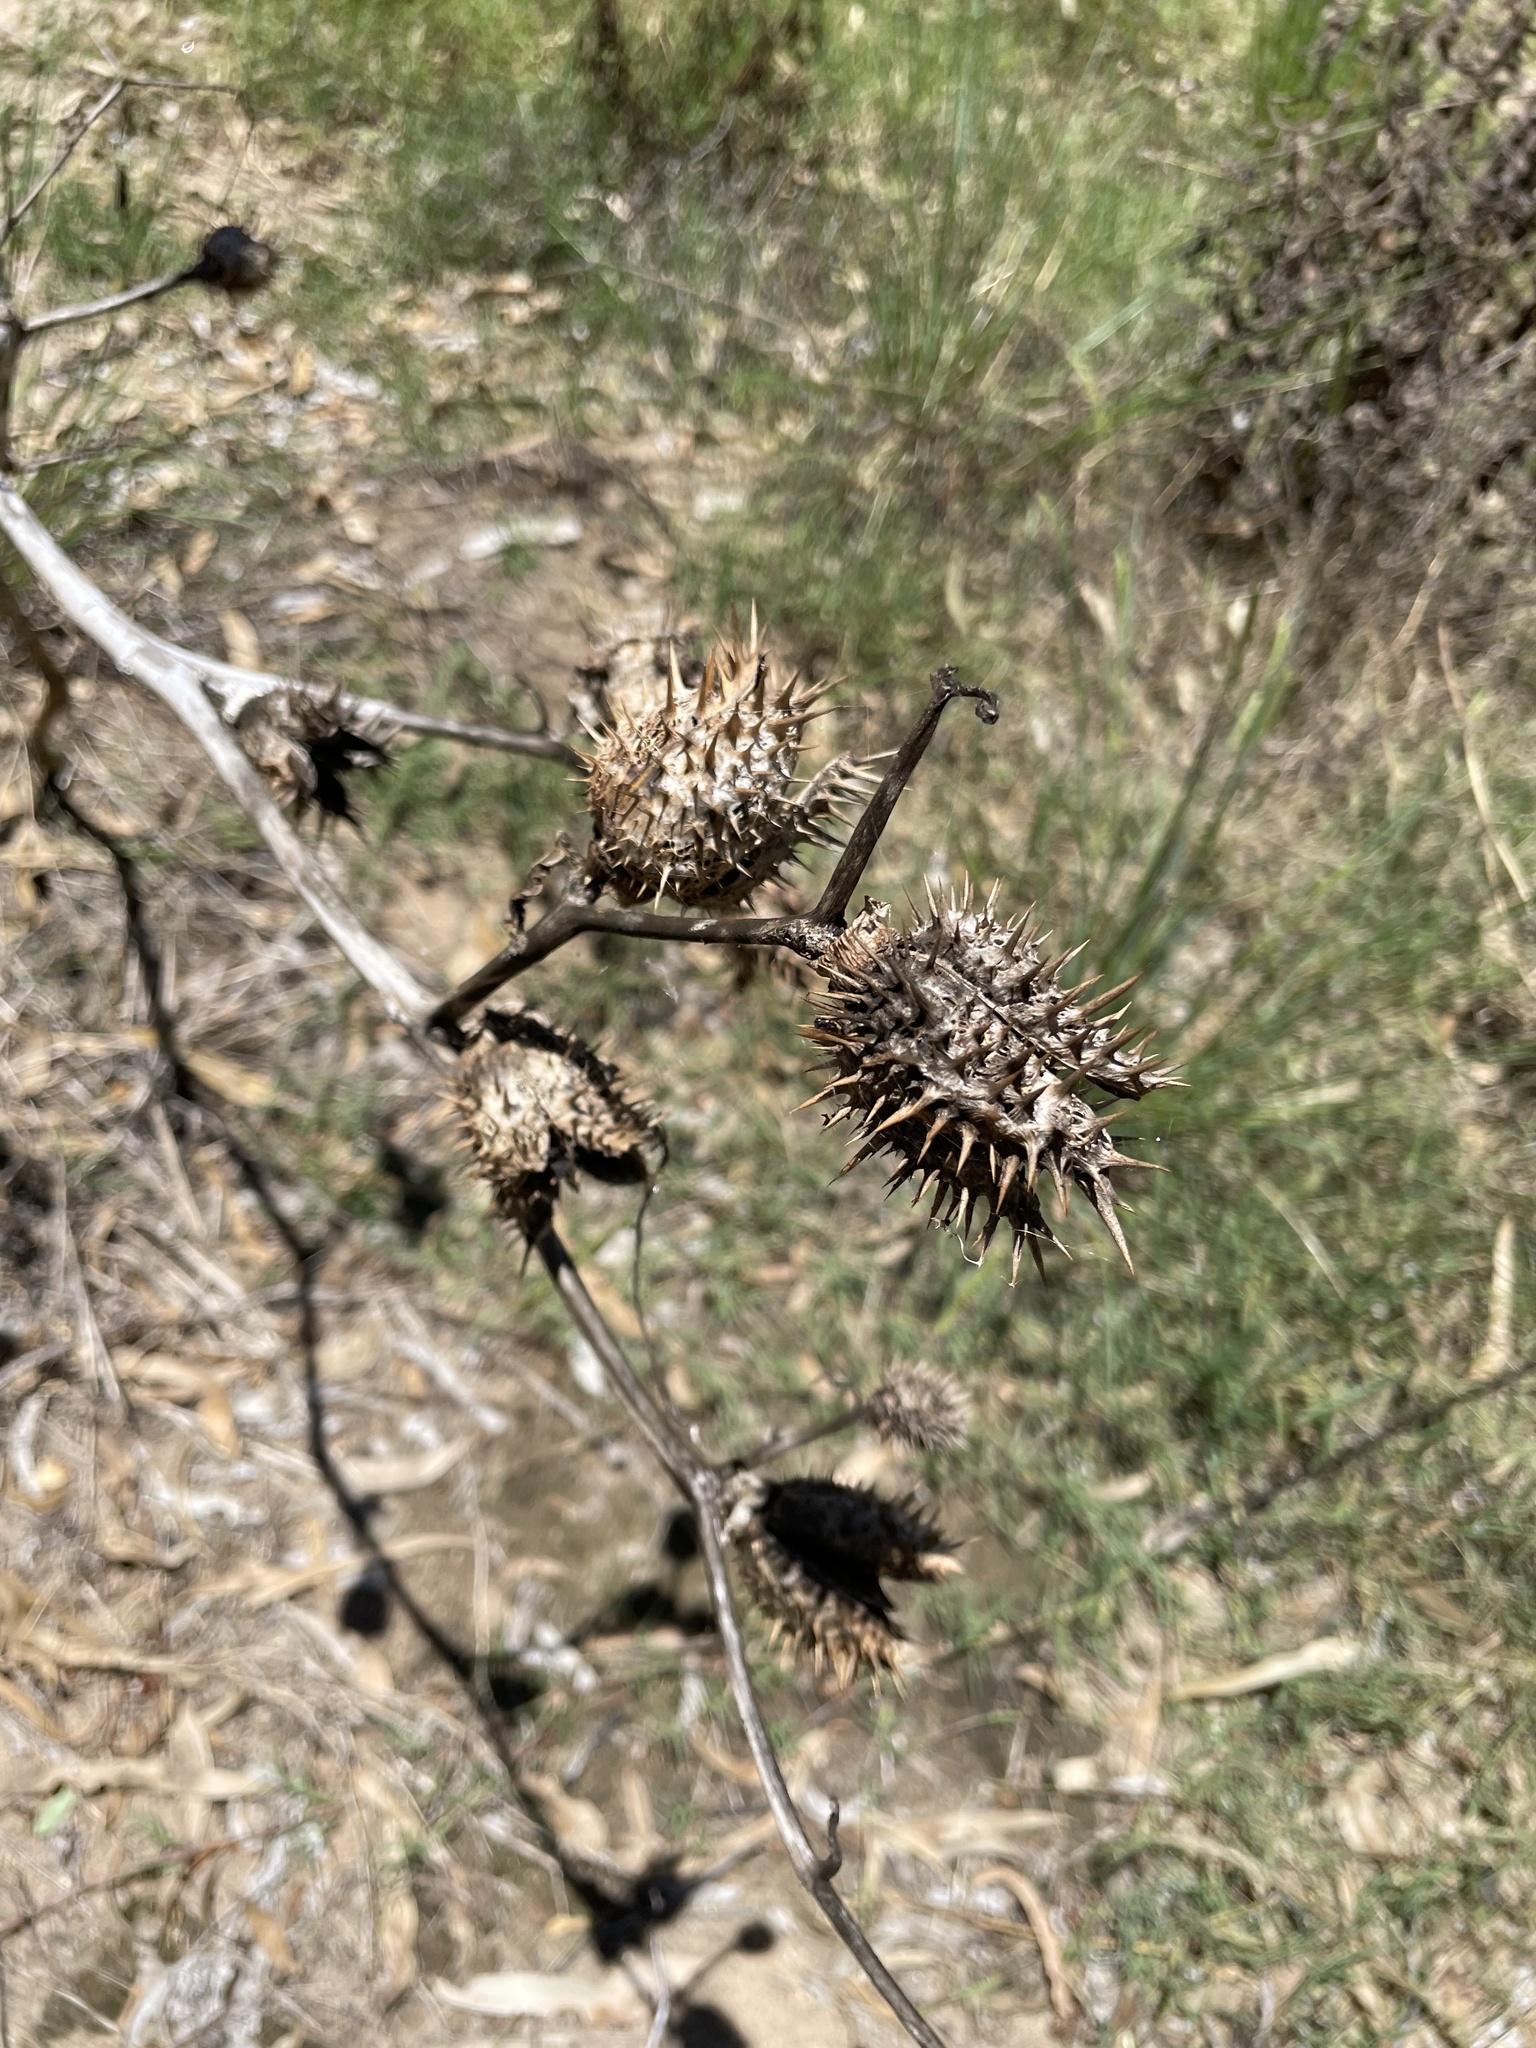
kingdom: Plantae
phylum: Tracheophyta
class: Magnoliopsida
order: Solanales
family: Solanaceae
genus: Datura
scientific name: Datura stramonium
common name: Thorn-apple
